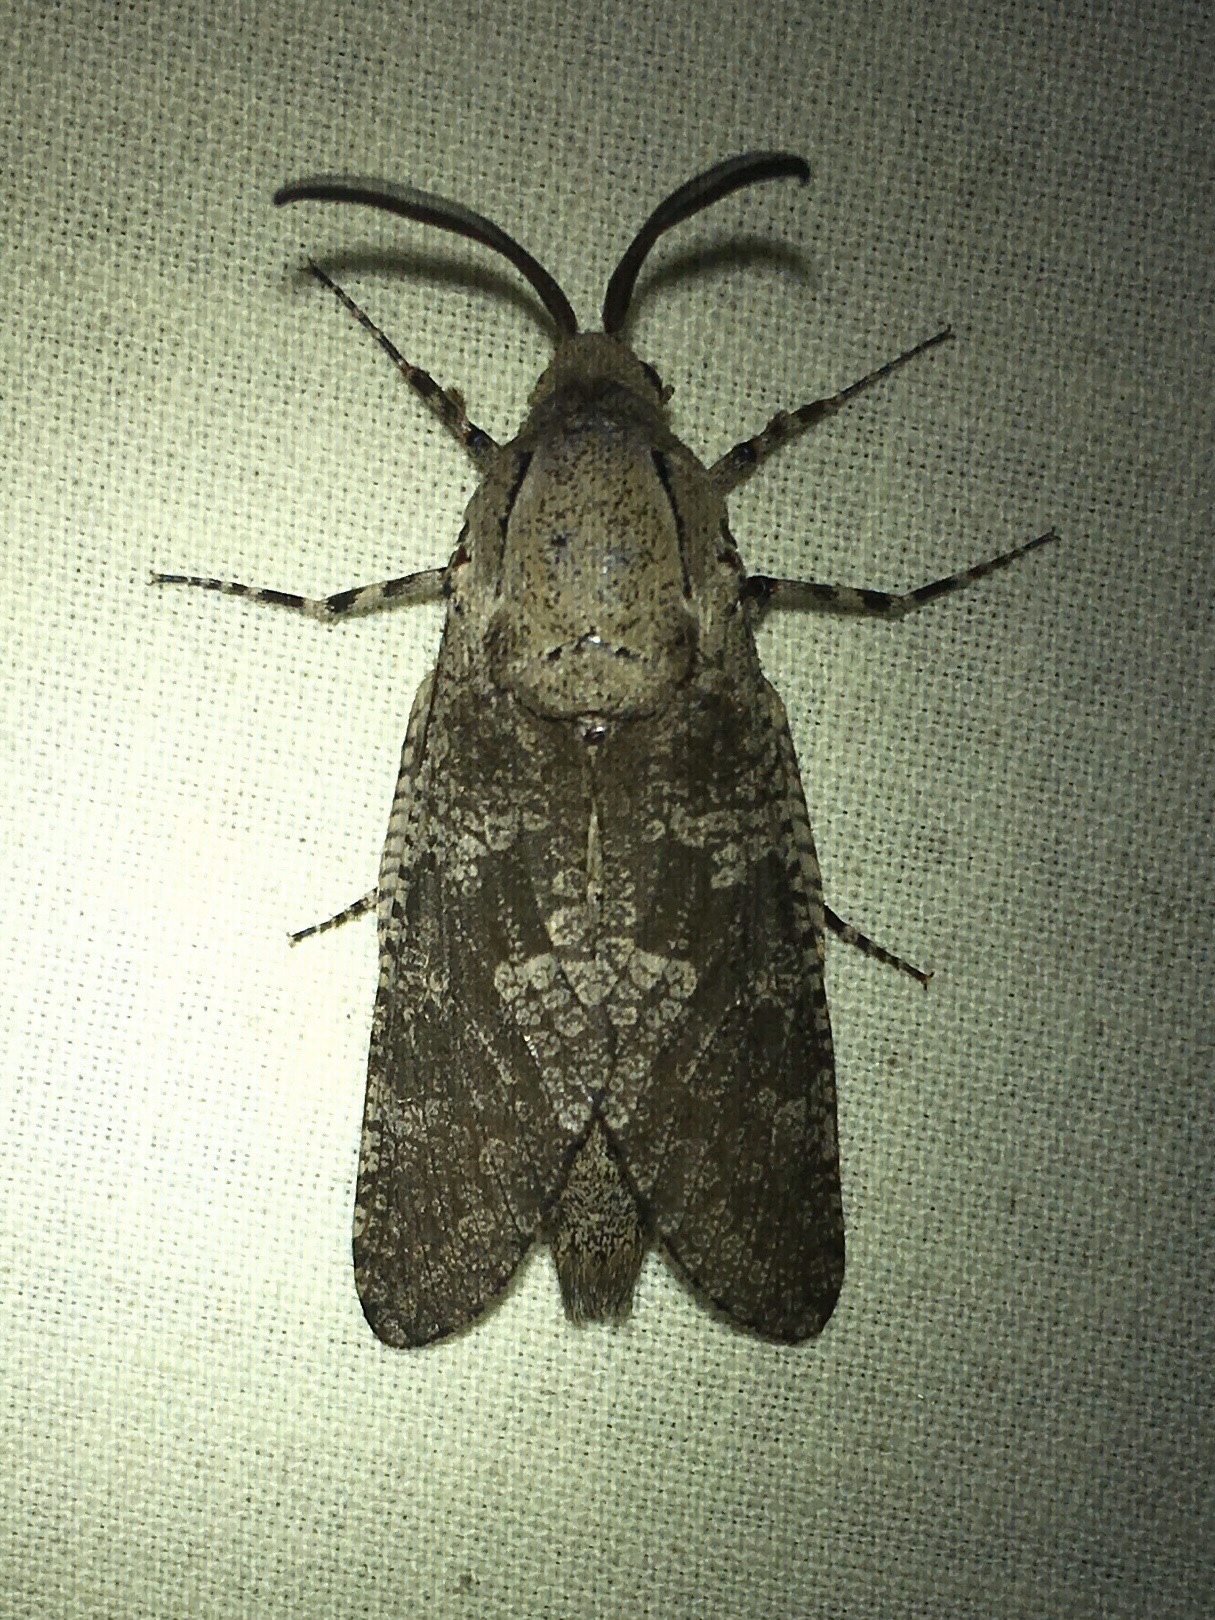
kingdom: Animalia
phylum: Arthropoda
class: Insecta
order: Lepidoptera
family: Cossidae
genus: Prionoxystus
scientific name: Prionoxystus robiniae
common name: Carpenterworm
